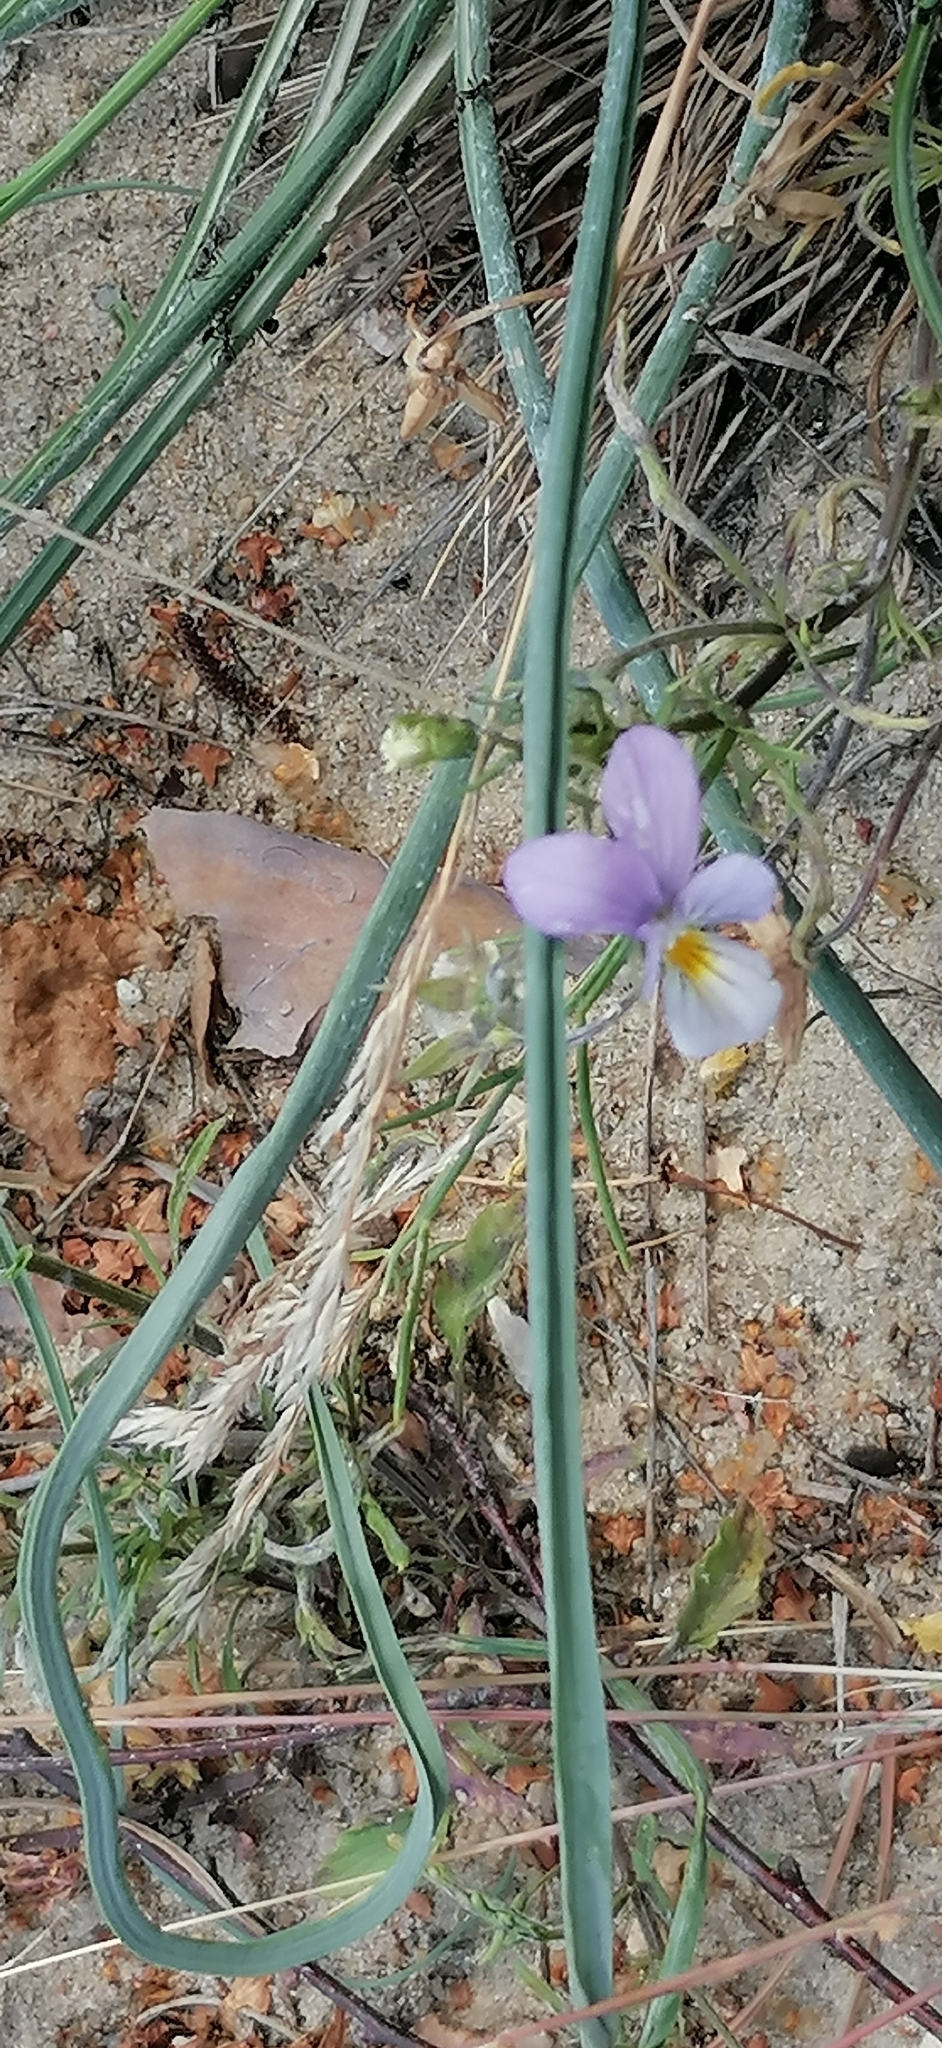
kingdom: Plantae
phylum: Tracheophyta
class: Magnoliopsida
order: Malpighiales
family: Violaceae
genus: Viola
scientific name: Viola tricolor
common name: Pansy
